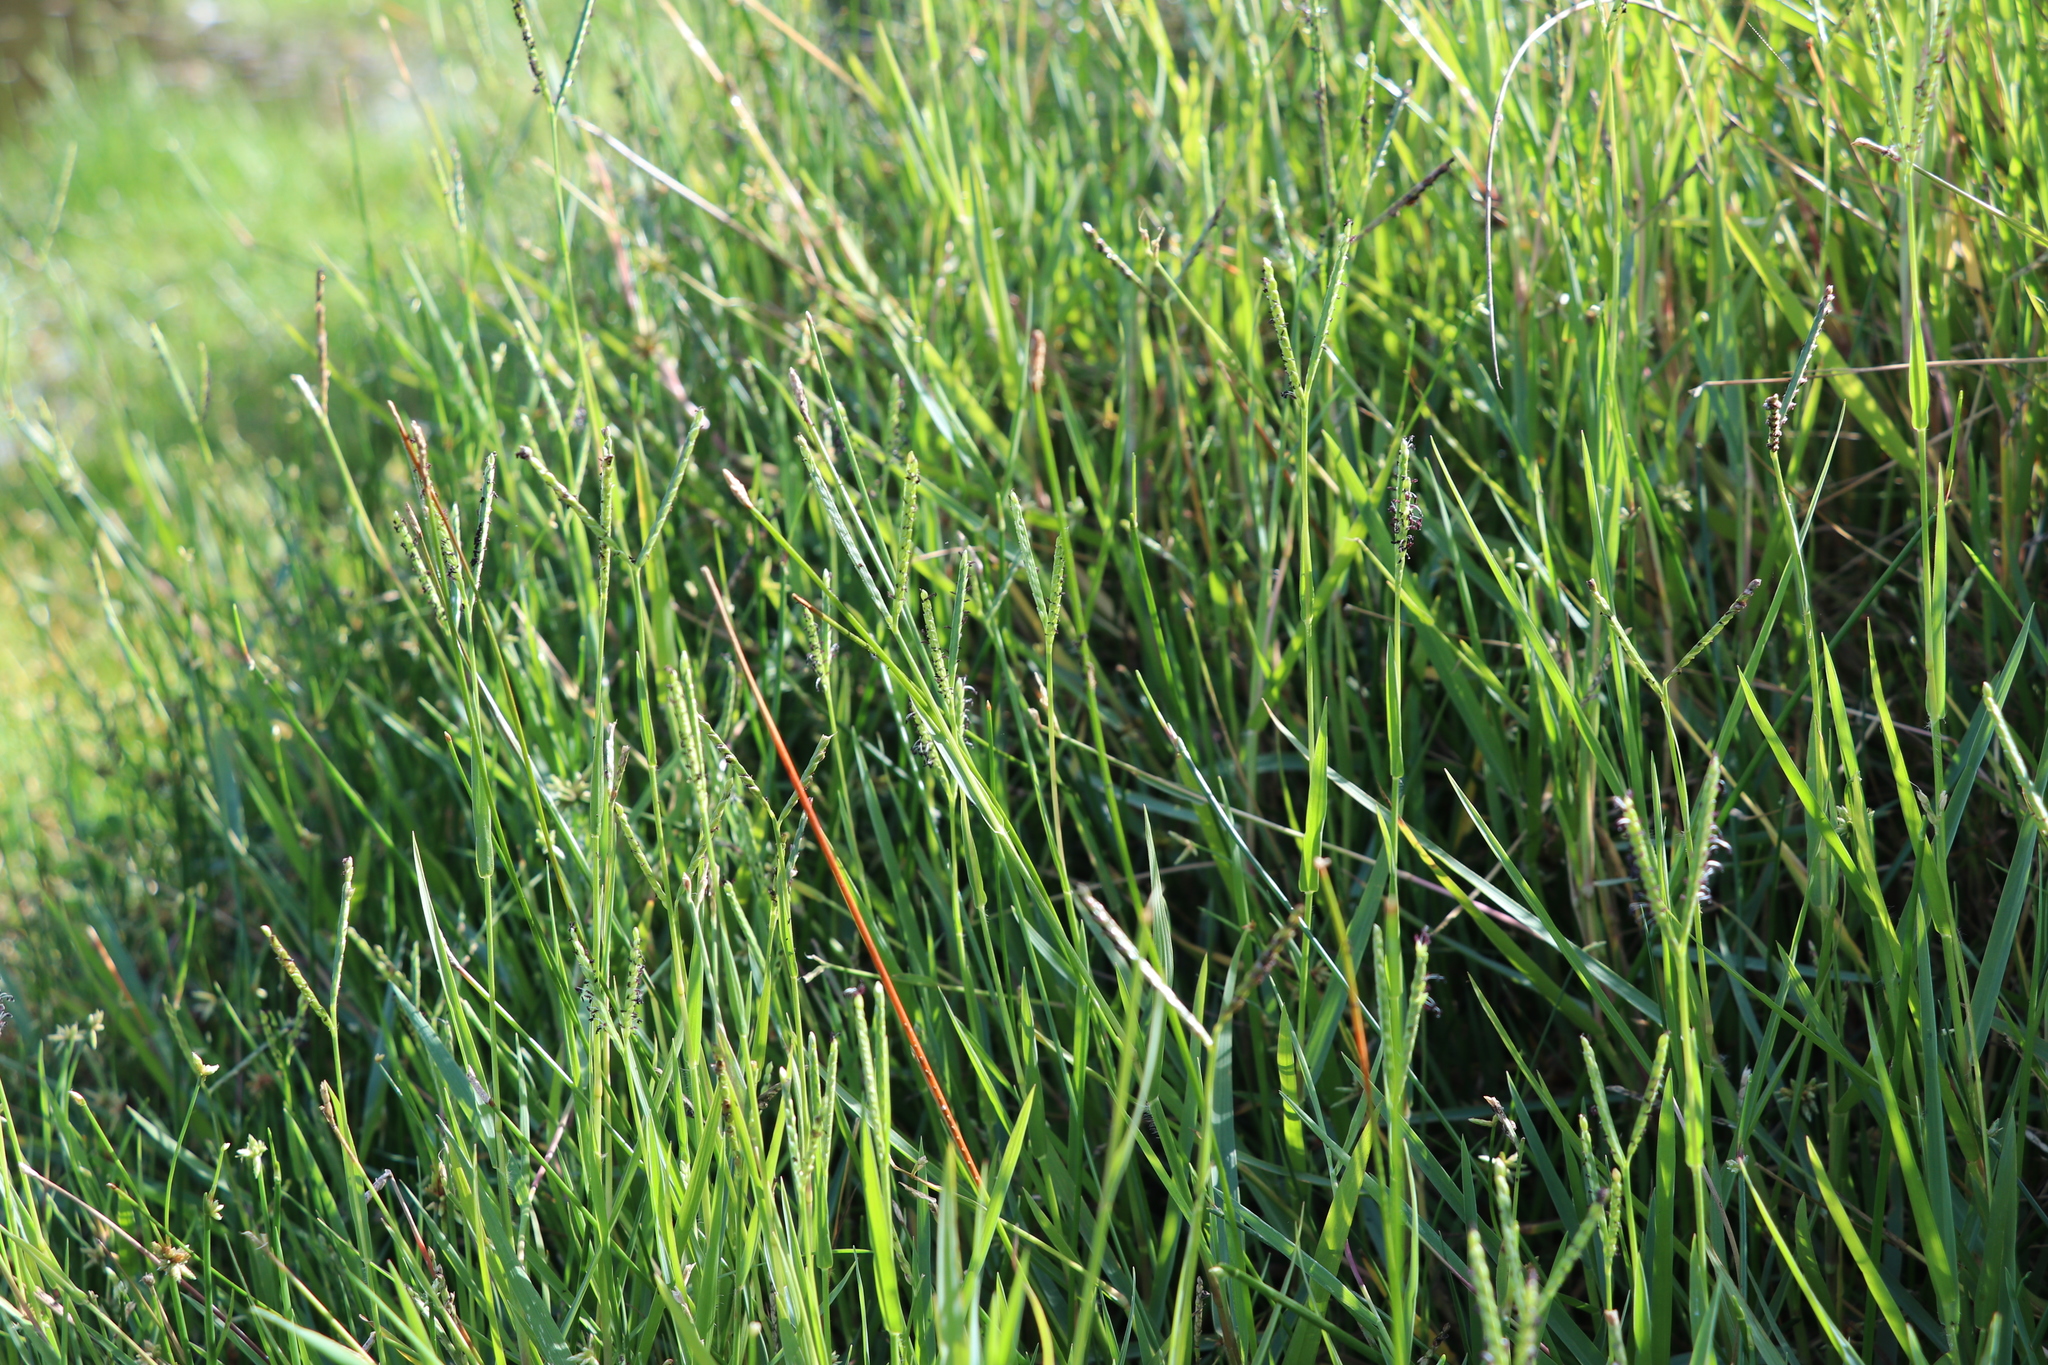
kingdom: Plantae
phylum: Tracheophyta
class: Liliopsida
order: Poales
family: Poaceae
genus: Paspalum
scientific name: Paspalum distichum
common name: Knotgrass
